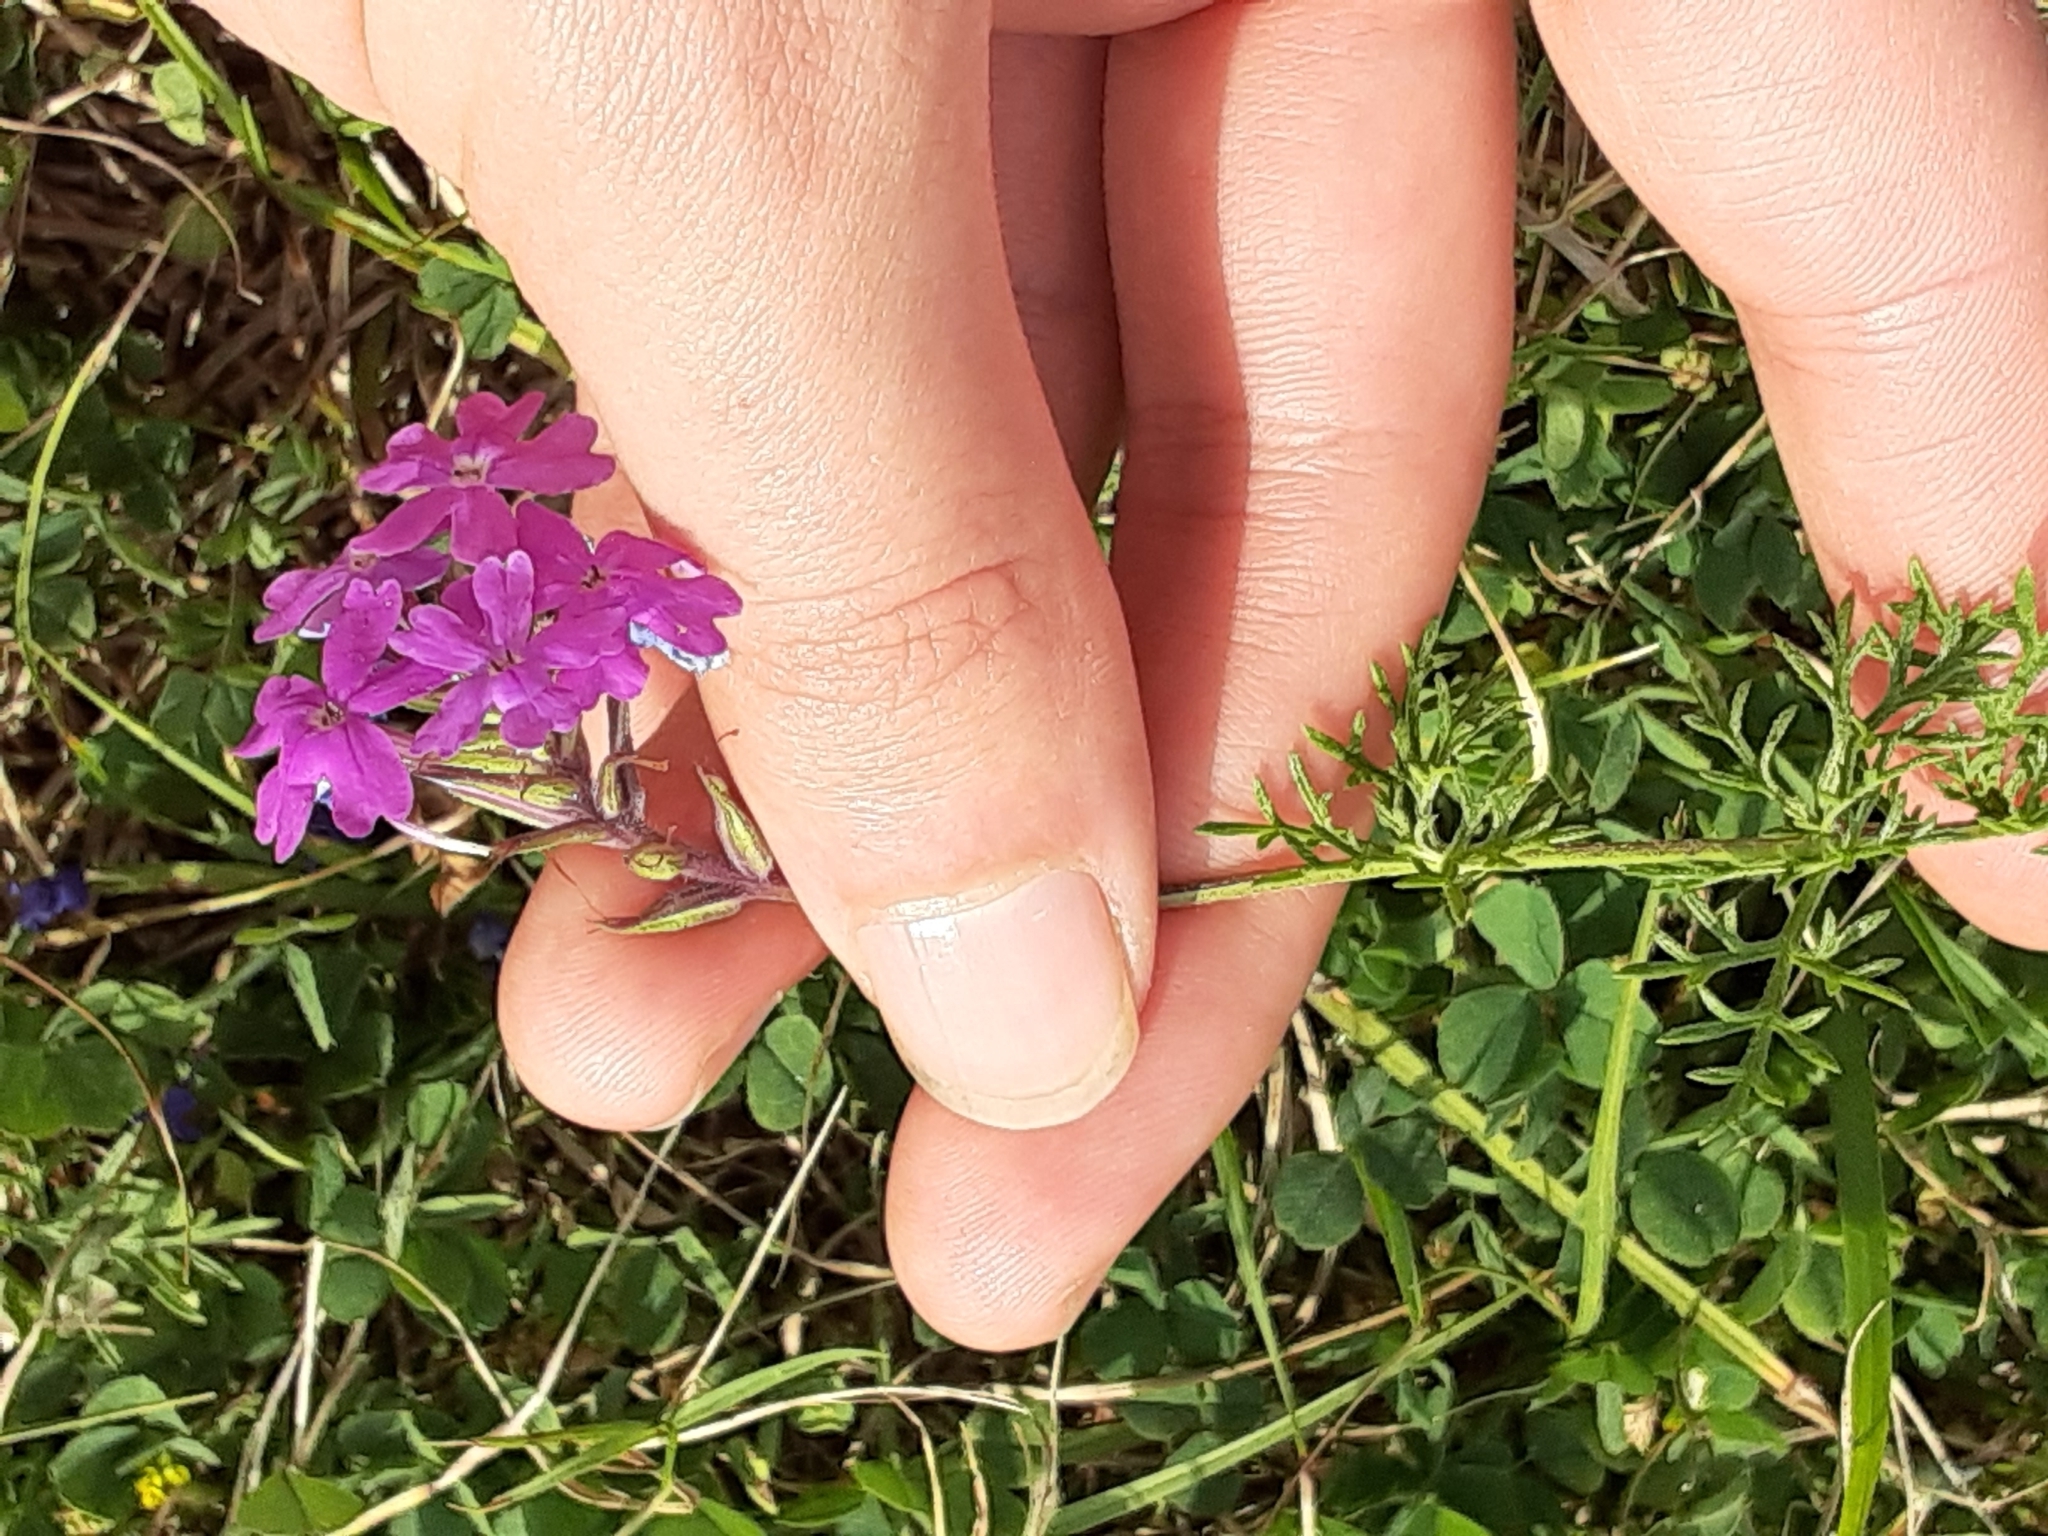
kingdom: Plantae
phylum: Tracheophyta
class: Magnoliopsida
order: Lamiales
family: Verbenaceae
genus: Verbena
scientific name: Verbena aristigera
